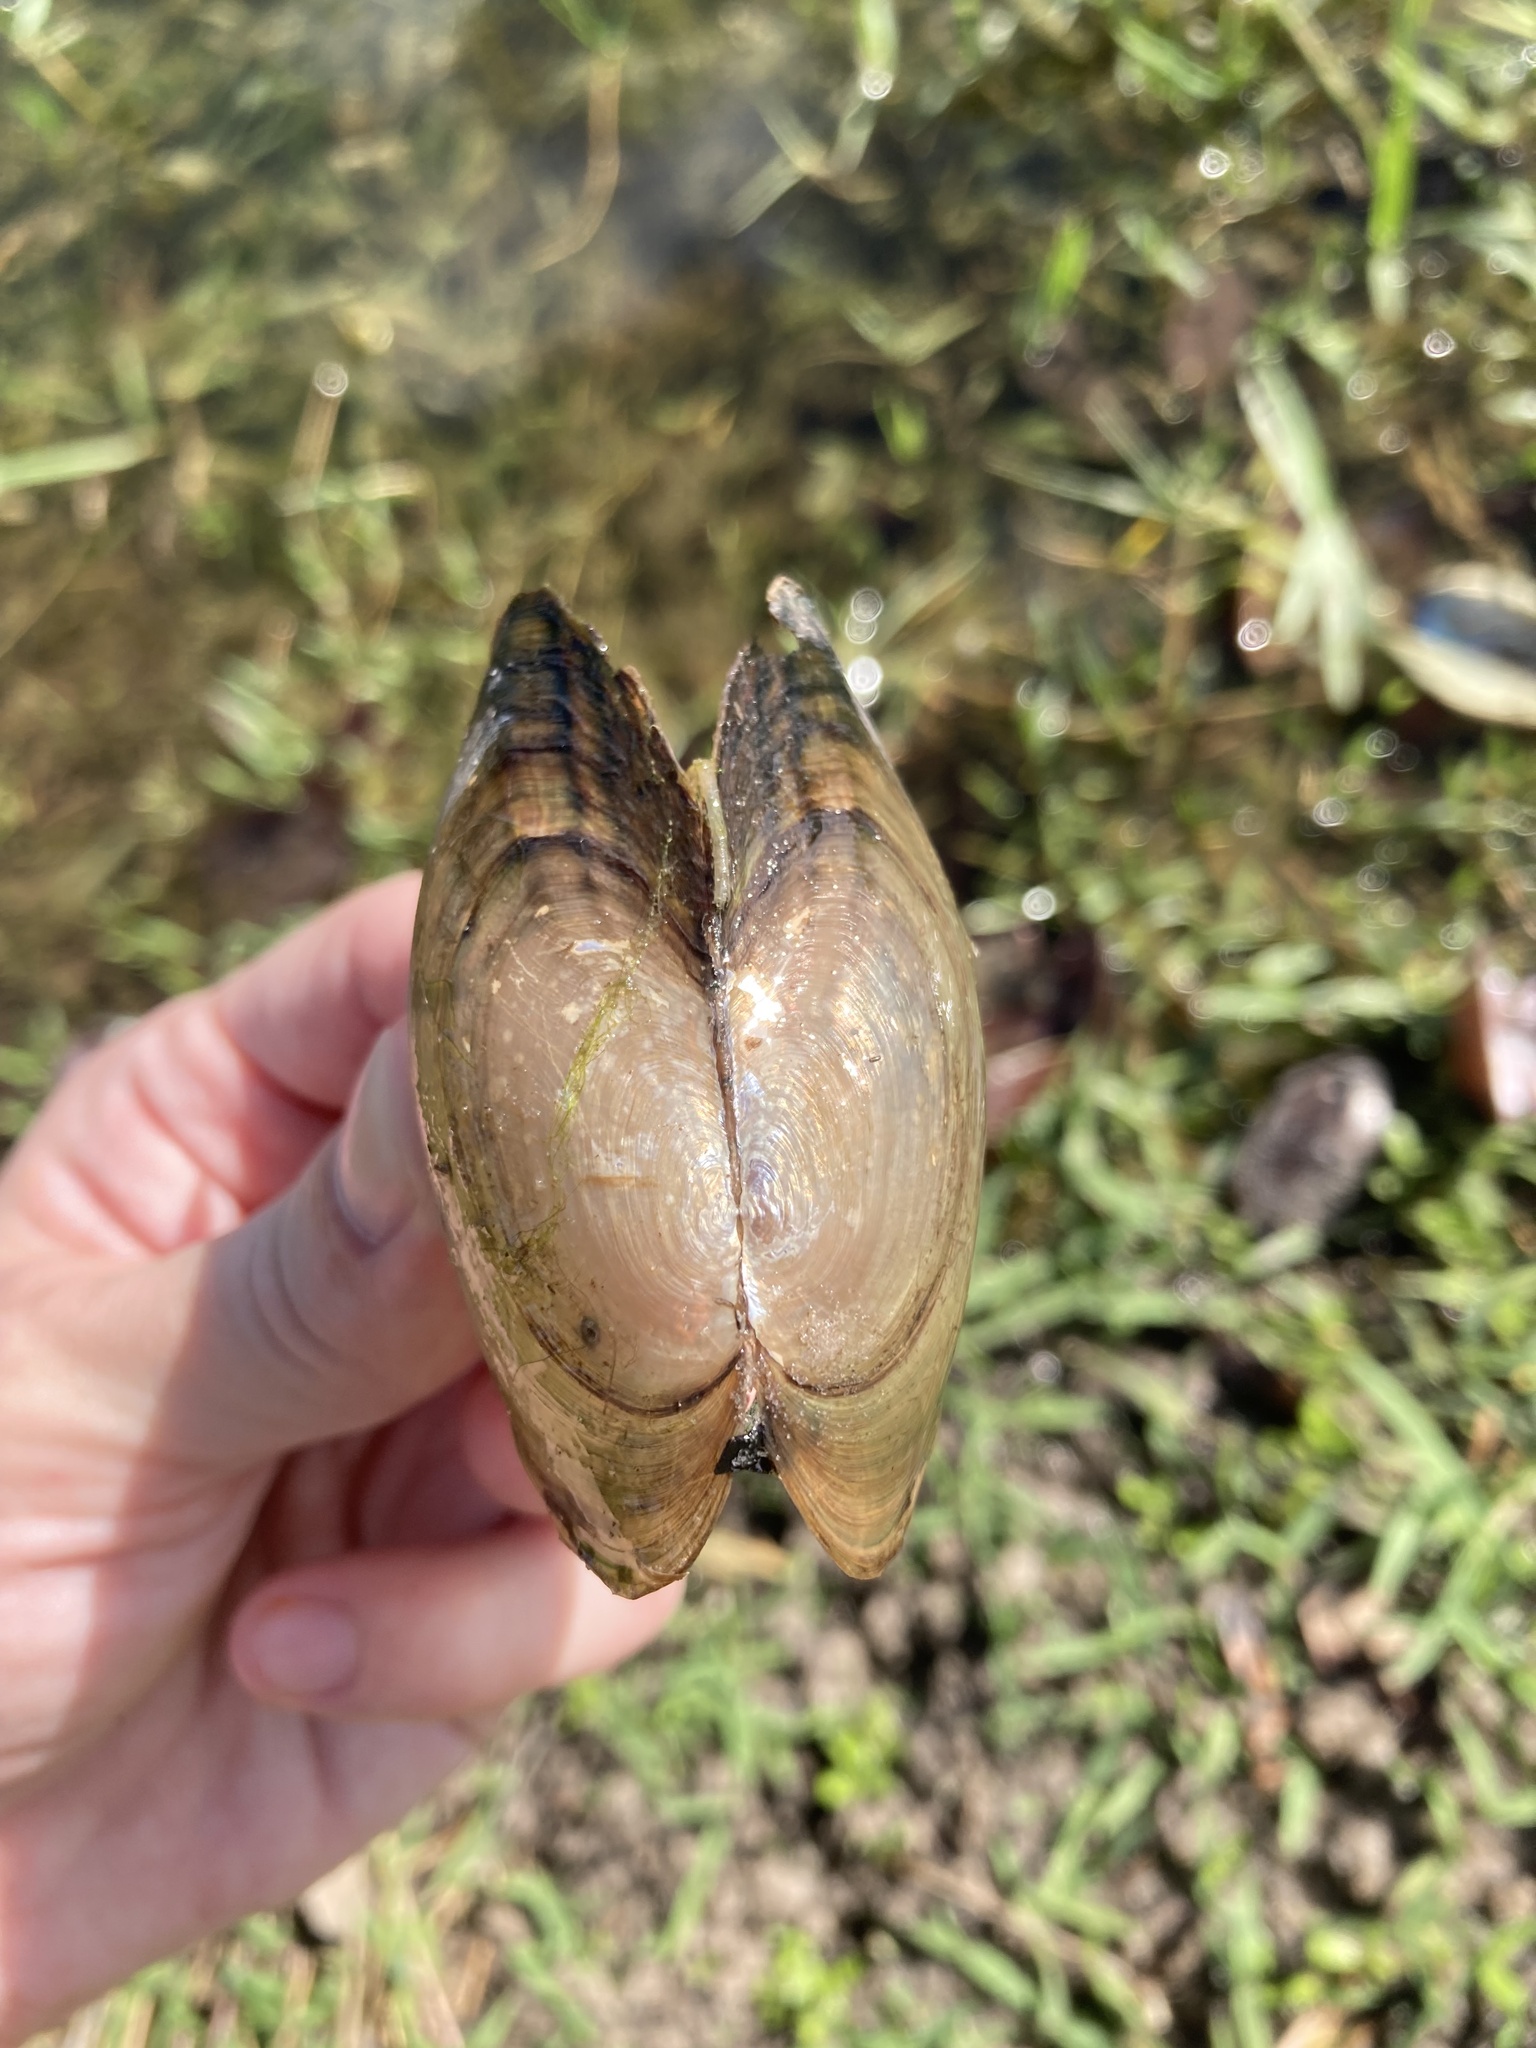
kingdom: Animalia
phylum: Mollusca
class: Bivalvia
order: Unionida
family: Unionidae
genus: Utterbackia
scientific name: Utterbackia imbecillis
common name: Paper pondshell
